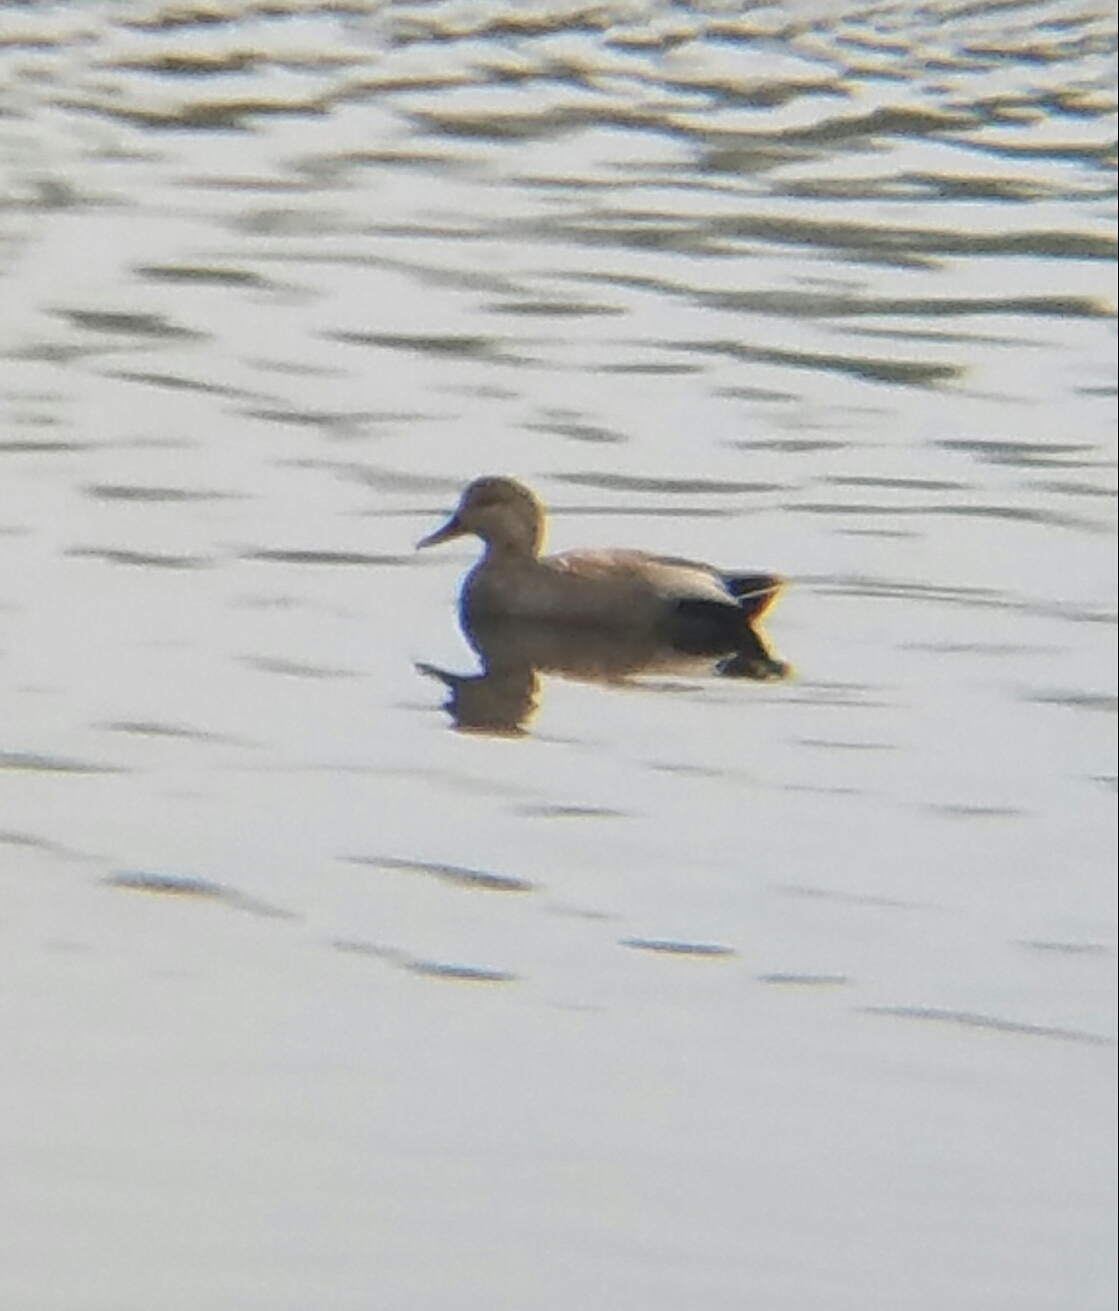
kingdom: Animalia
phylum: Chordata
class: Aves
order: Anseriformes
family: Anatidae
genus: Mareca
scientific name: Mareca strepera
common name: Gadwall
